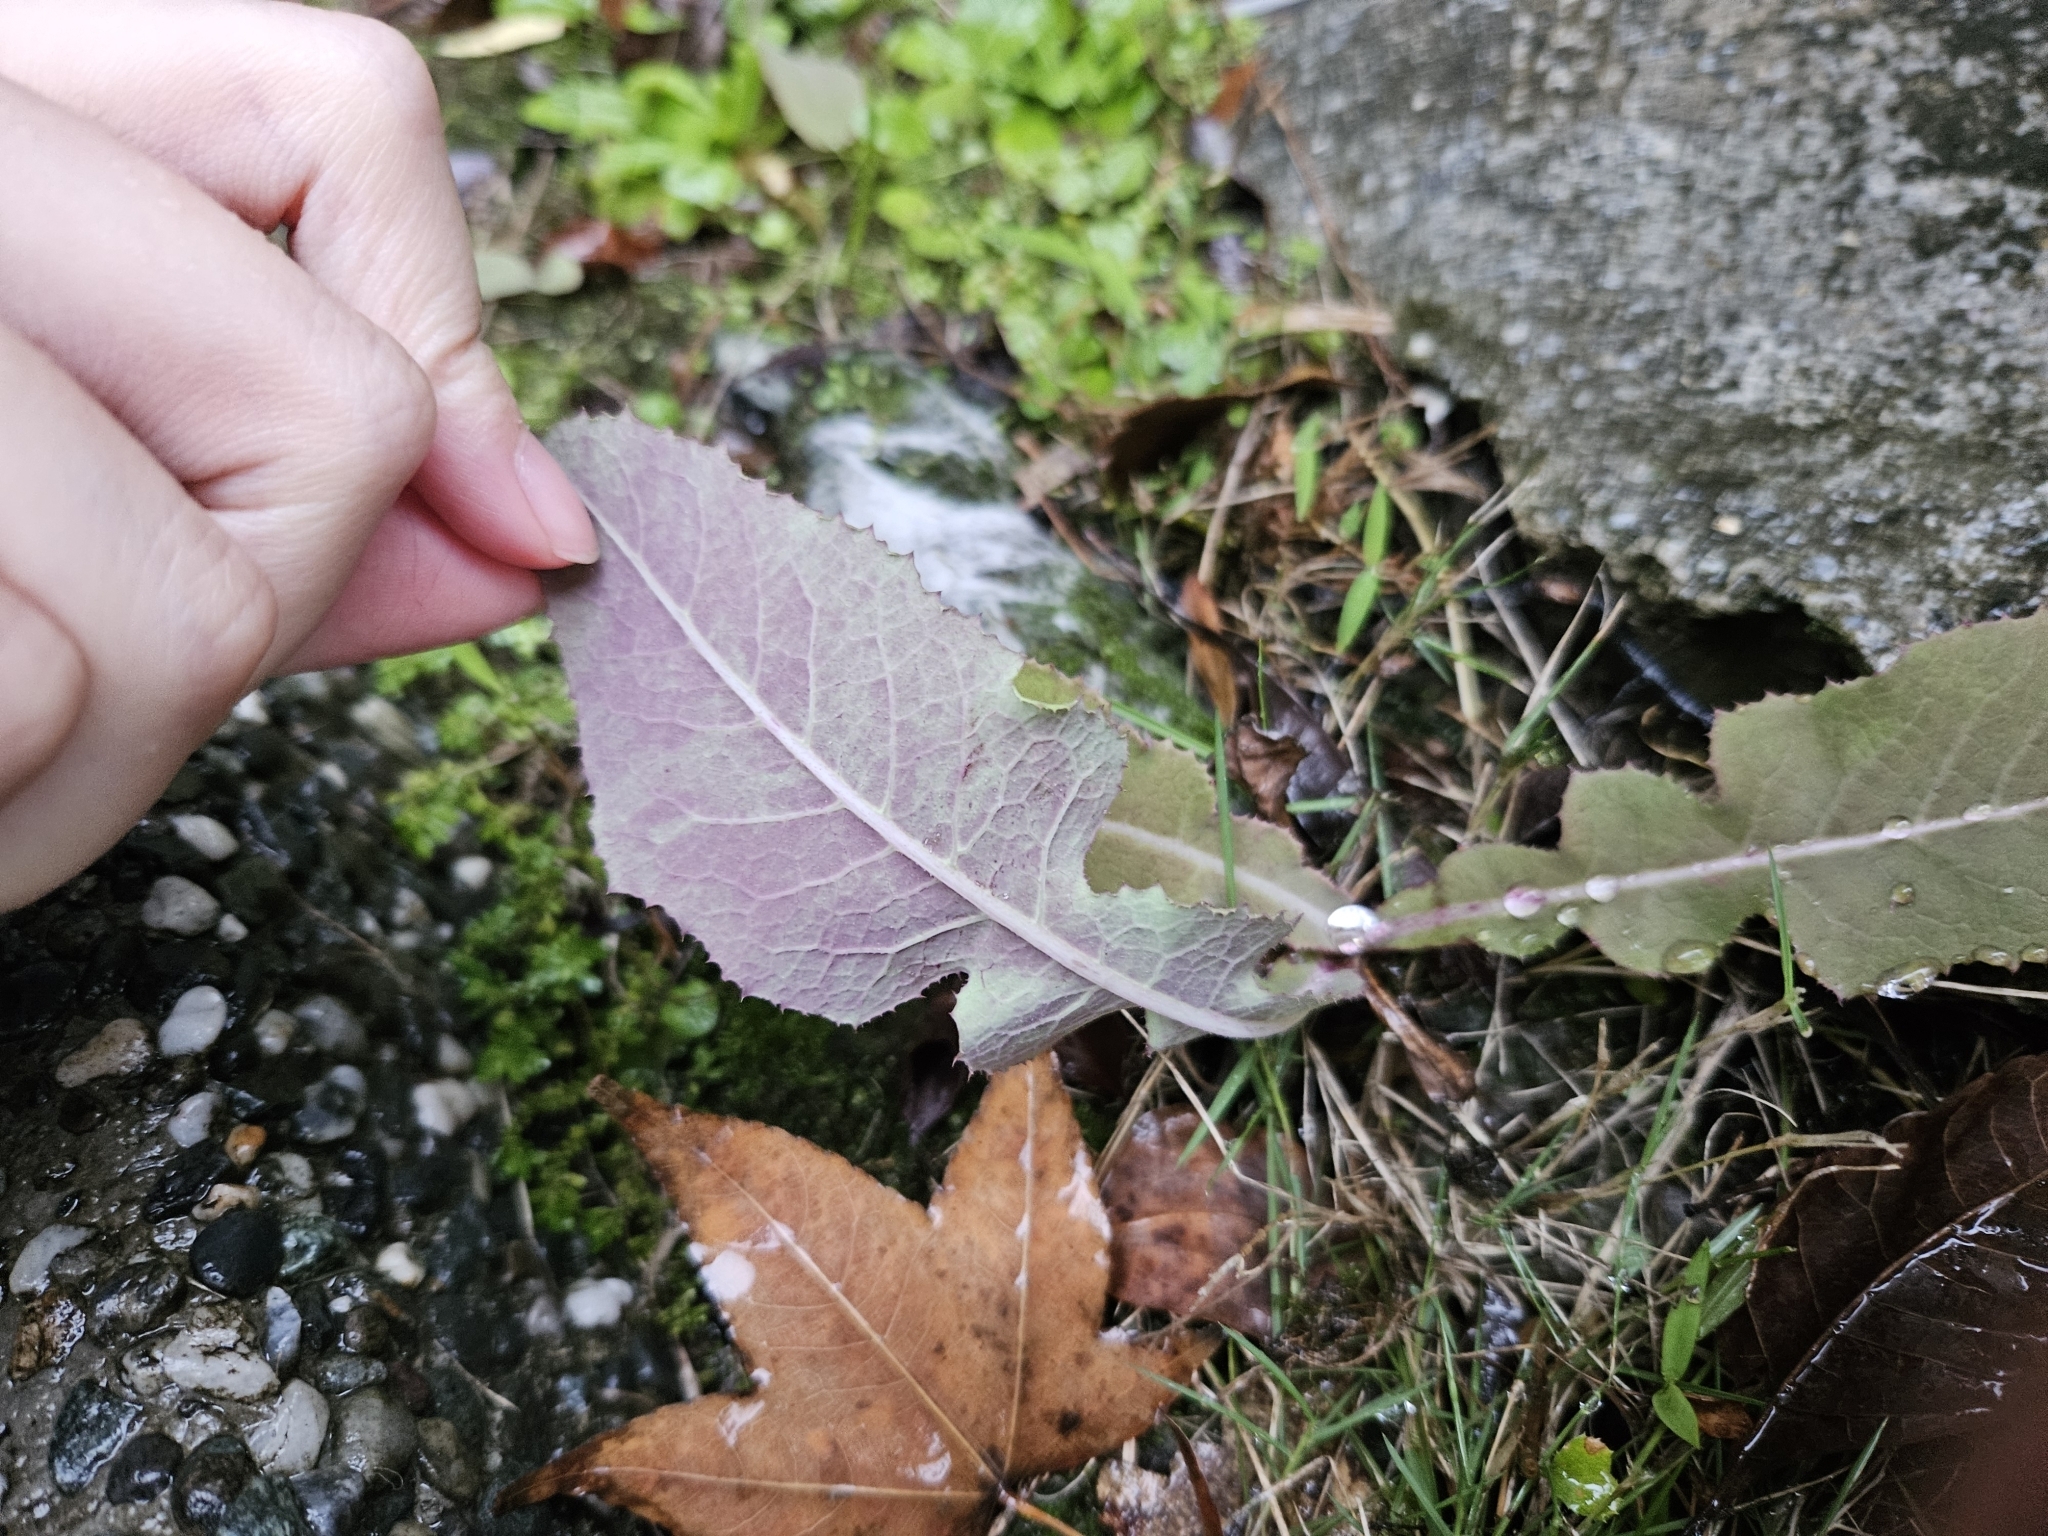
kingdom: Plantae
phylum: Tracheophyta
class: Magnoliopsida
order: Asterales
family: Asteraceae
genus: Sonchus
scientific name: Sonchus arvensis
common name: Perennial sow-thistle
